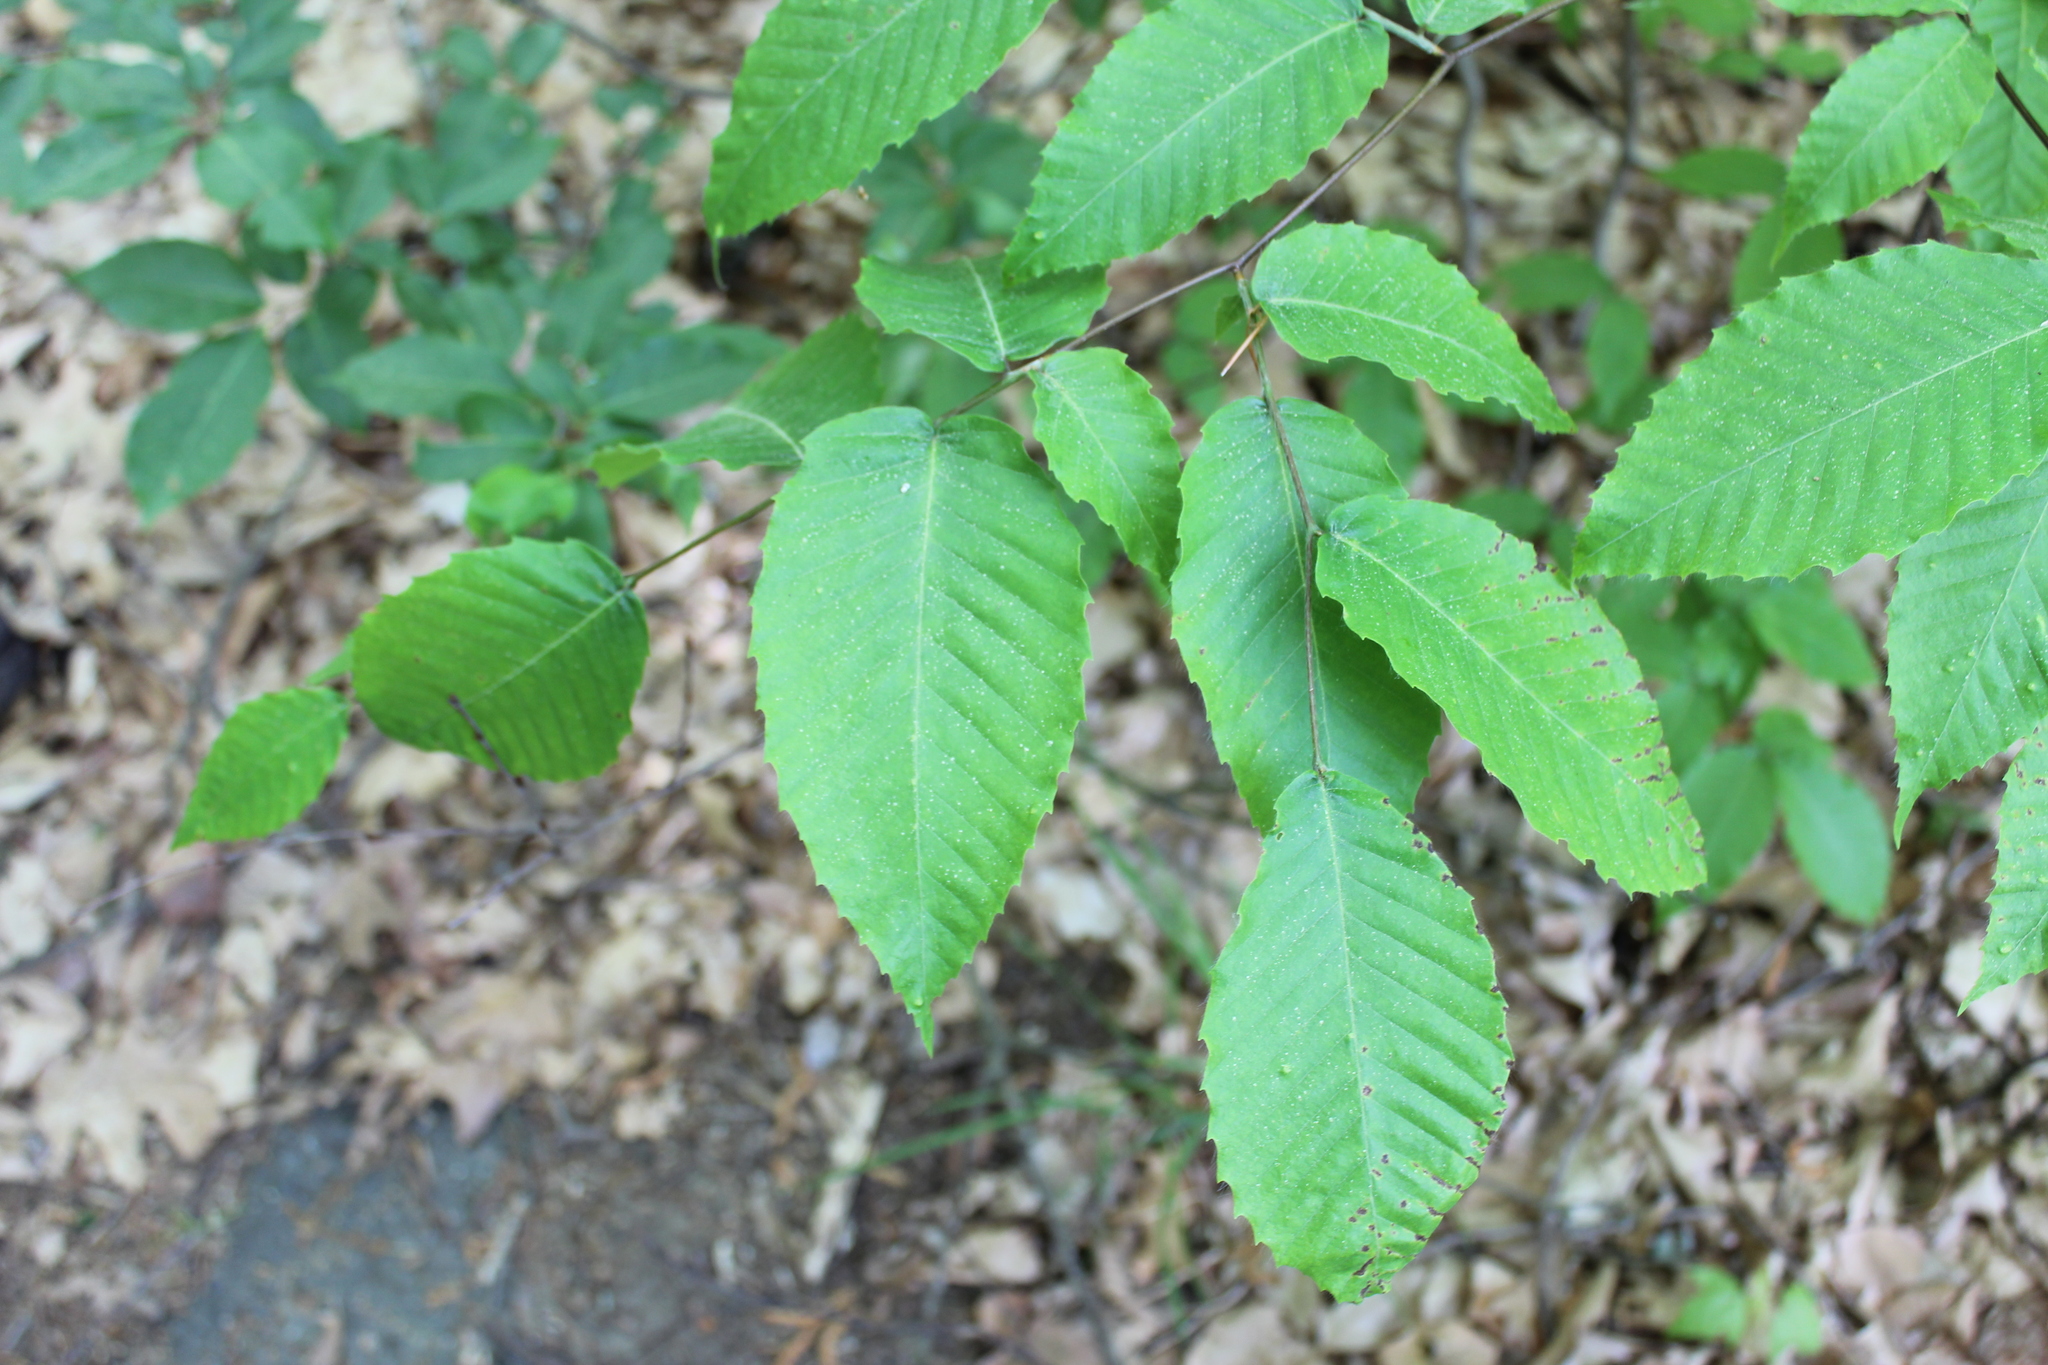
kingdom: Plantae
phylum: Tracheophyta
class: Magnoliopsida
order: Fagales
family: Fagaceae
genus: Fagus
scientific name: Fagus grandifolia
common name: American beech
